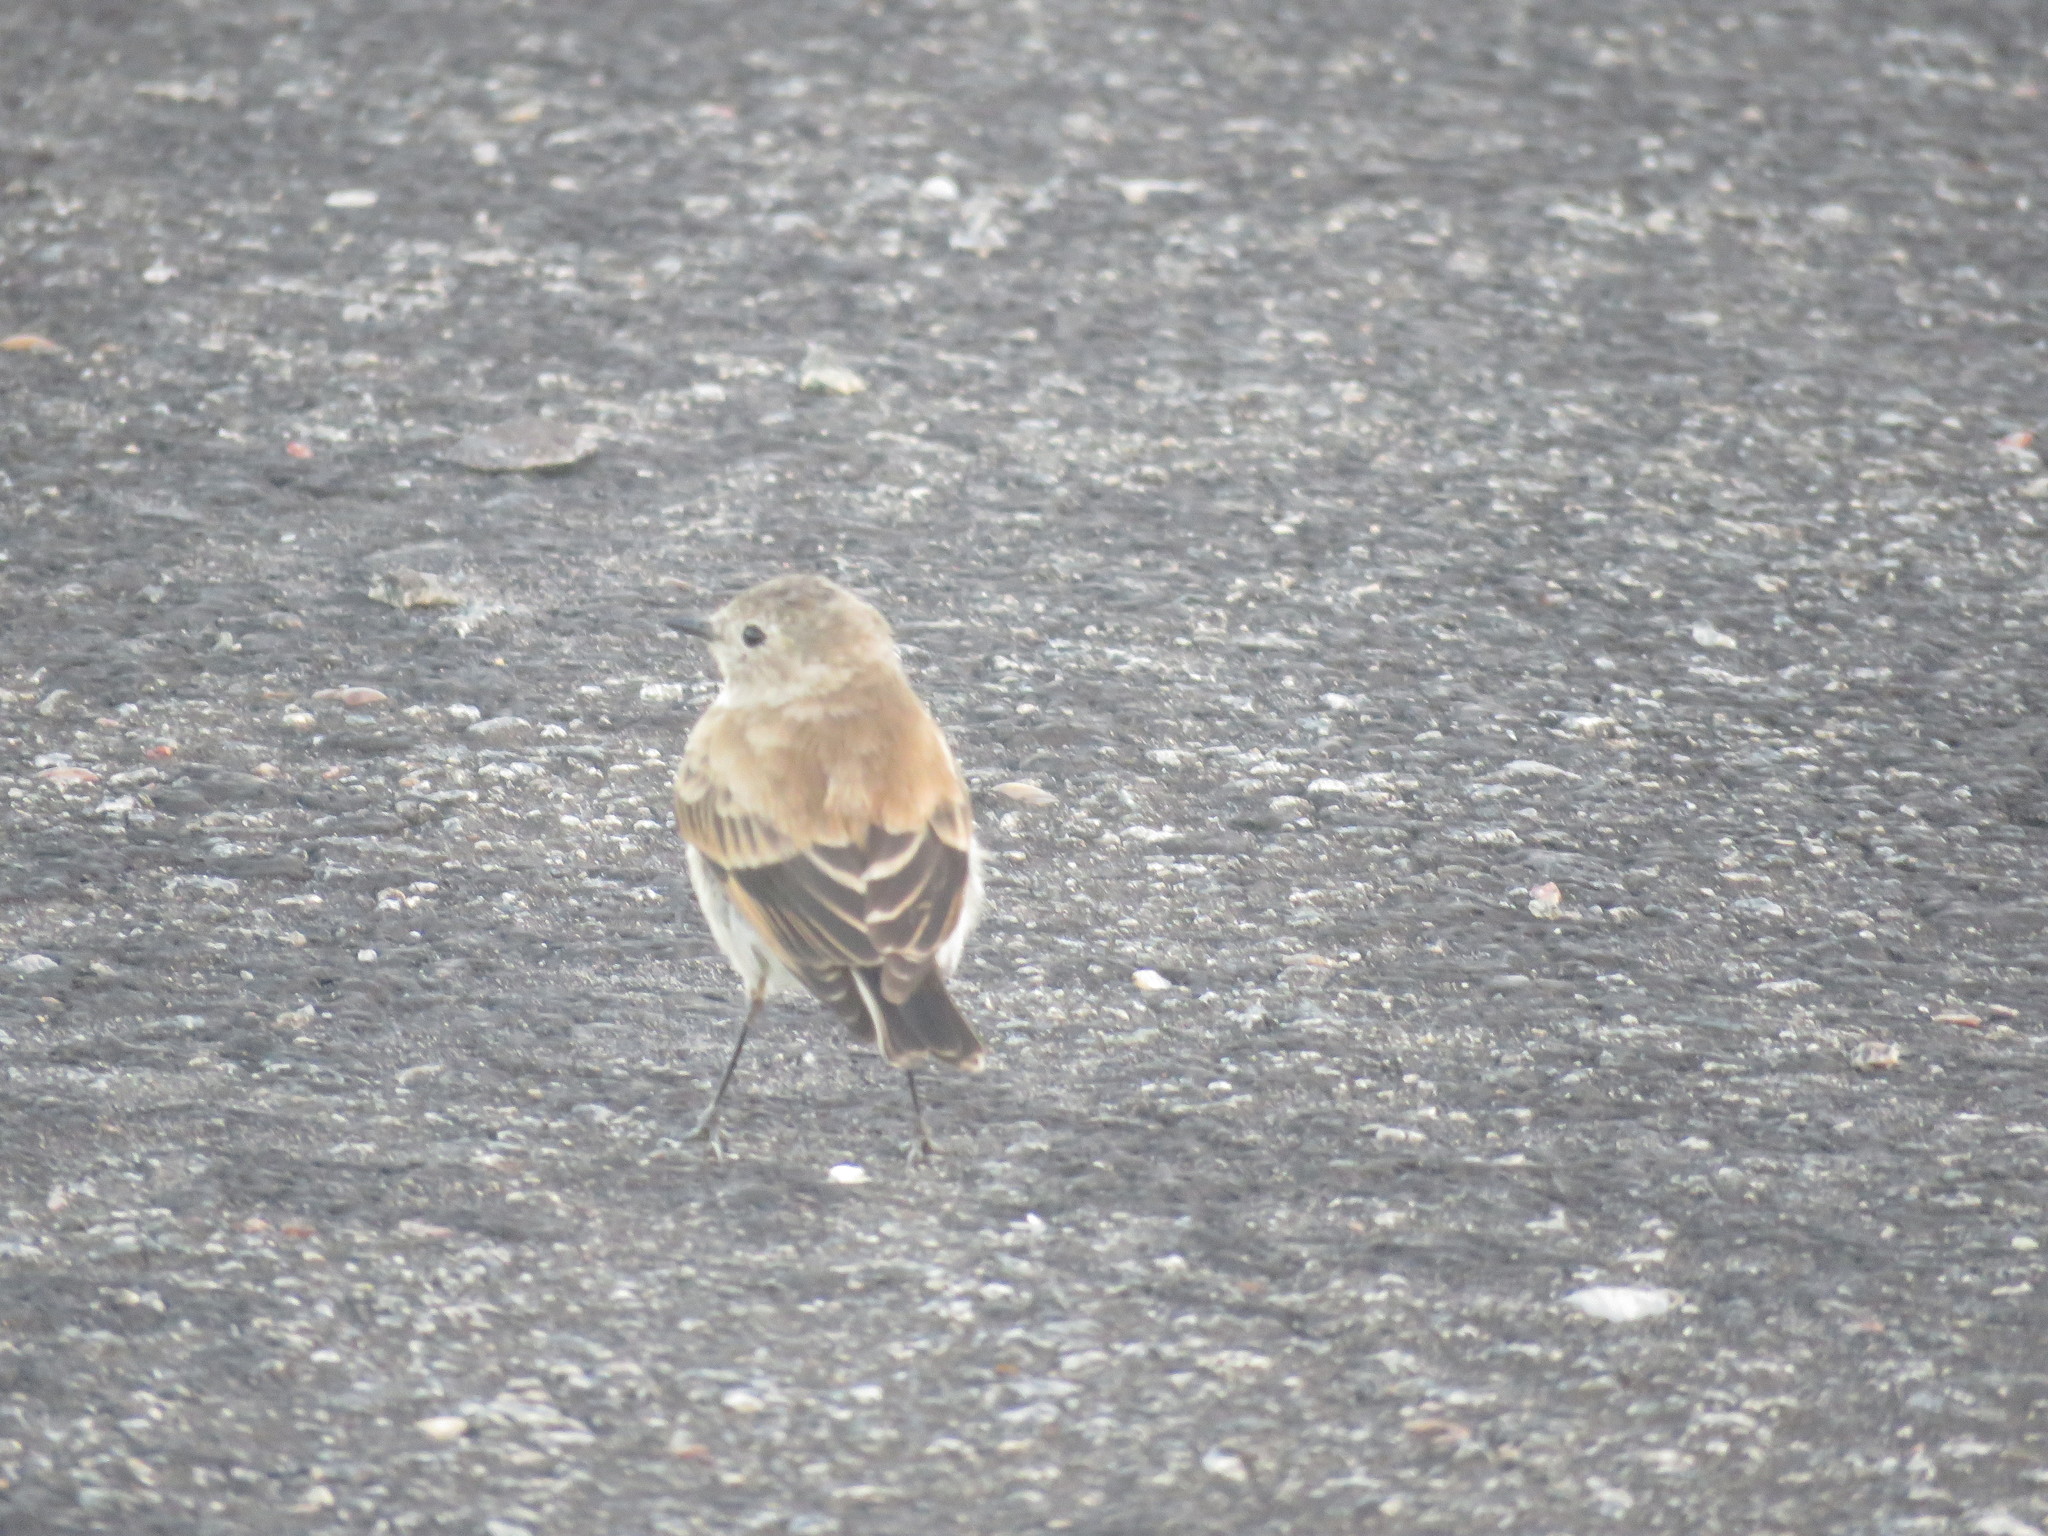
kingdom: Animalia
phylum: Chordata
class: Aves
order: Passeriformes
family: Tyrannidae
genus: Lessonia
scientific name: Lessonia rufa
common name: Austral negrito
